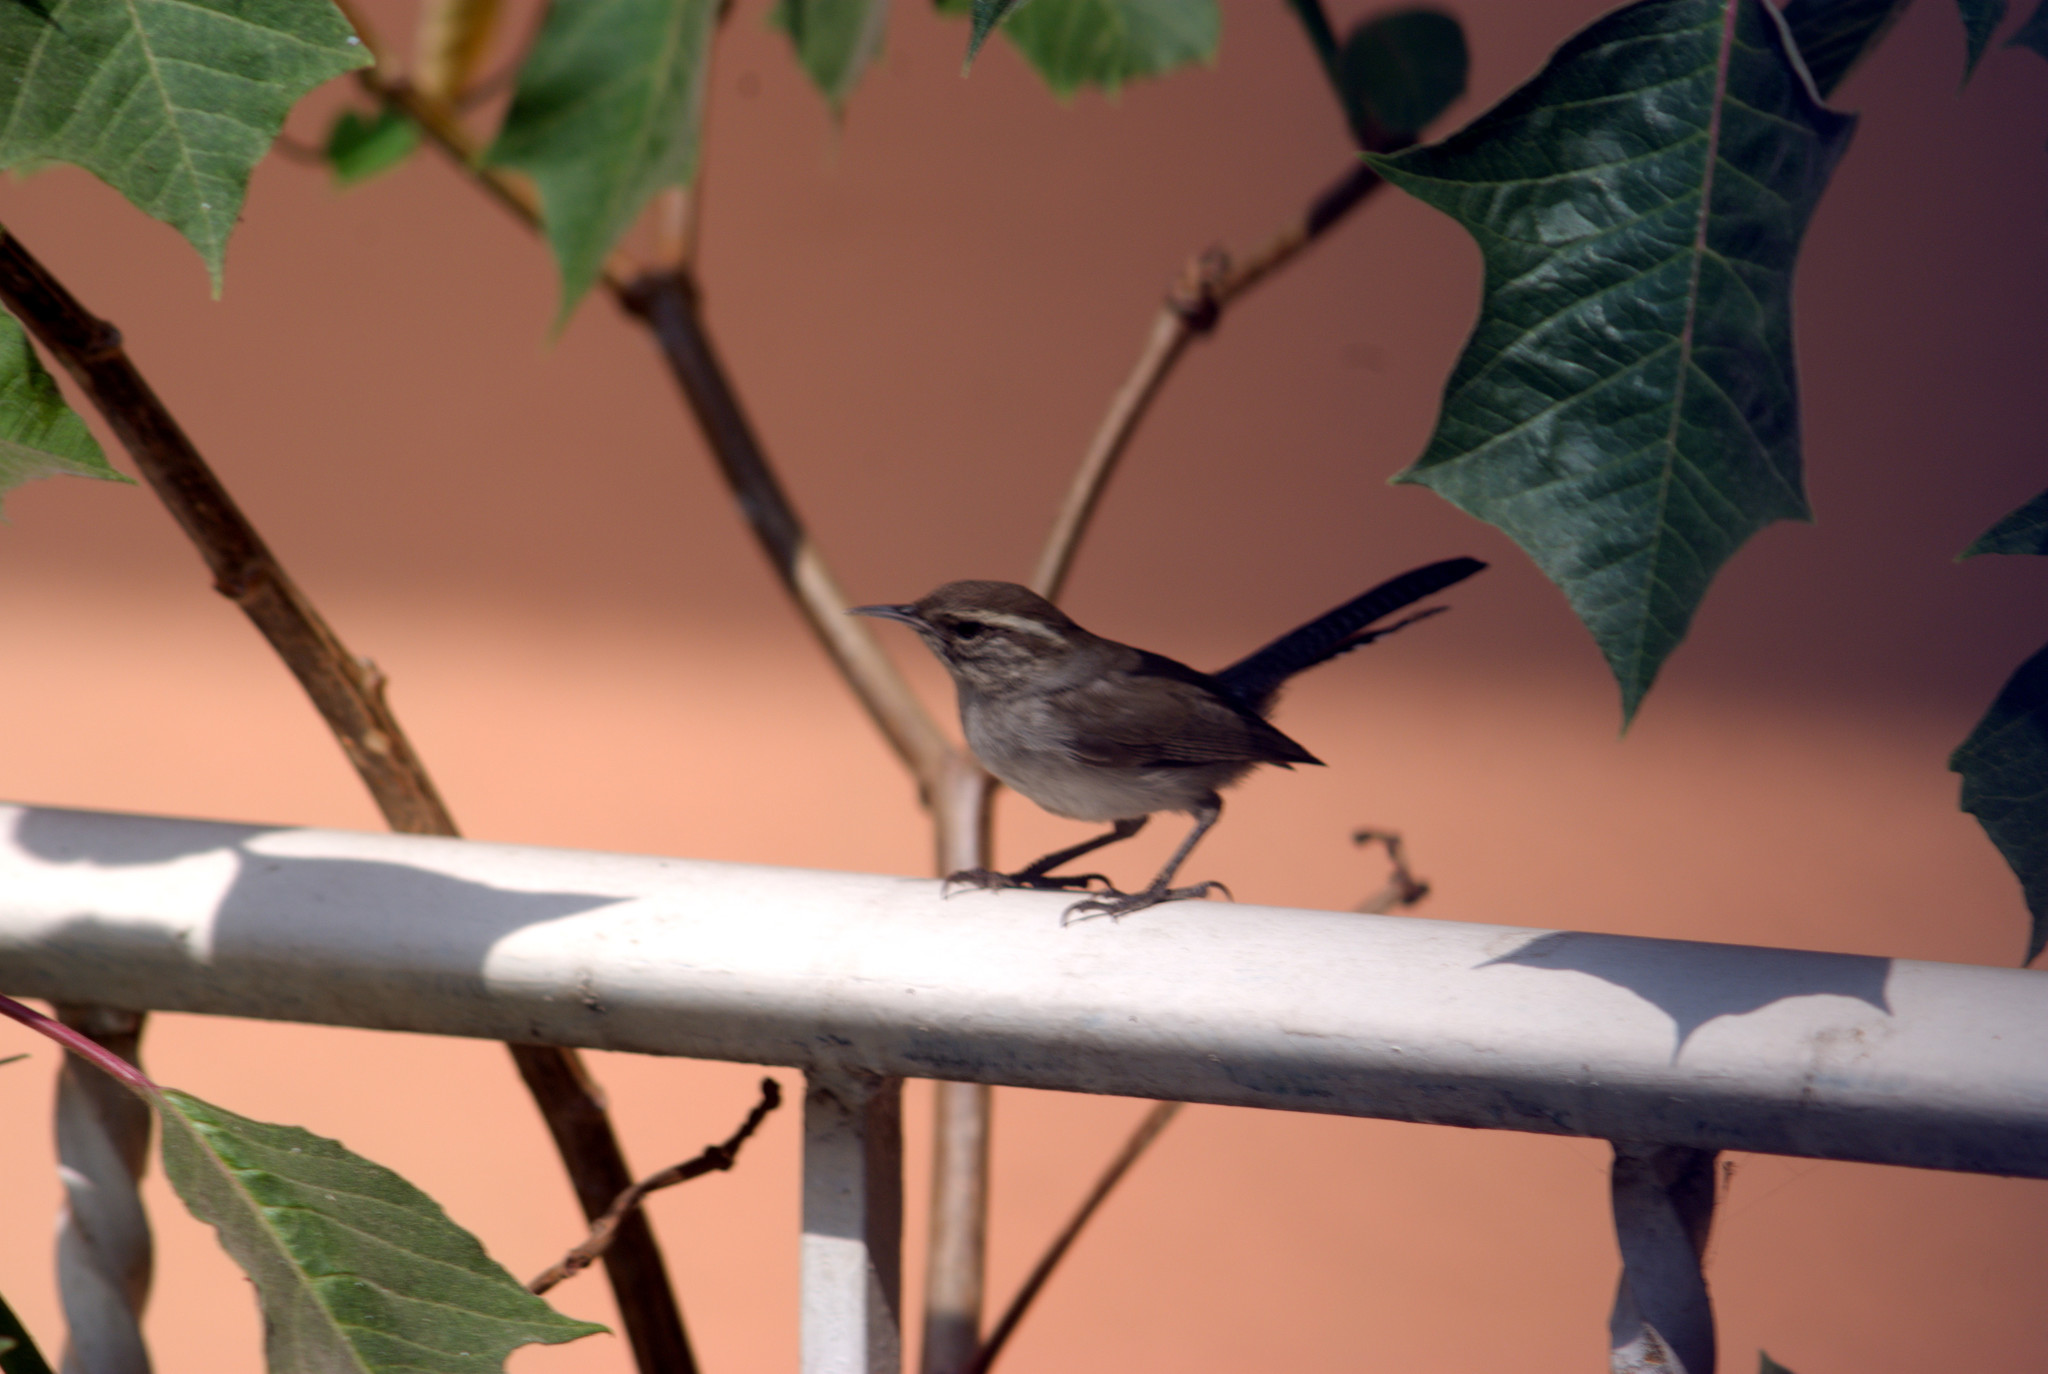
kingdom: Animalia
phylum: Chordata
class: Aves
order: Passeriformes
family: Troglodytidae
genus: Thryomanes
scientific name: Thryomanes bewickii
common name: Bewick's wren
